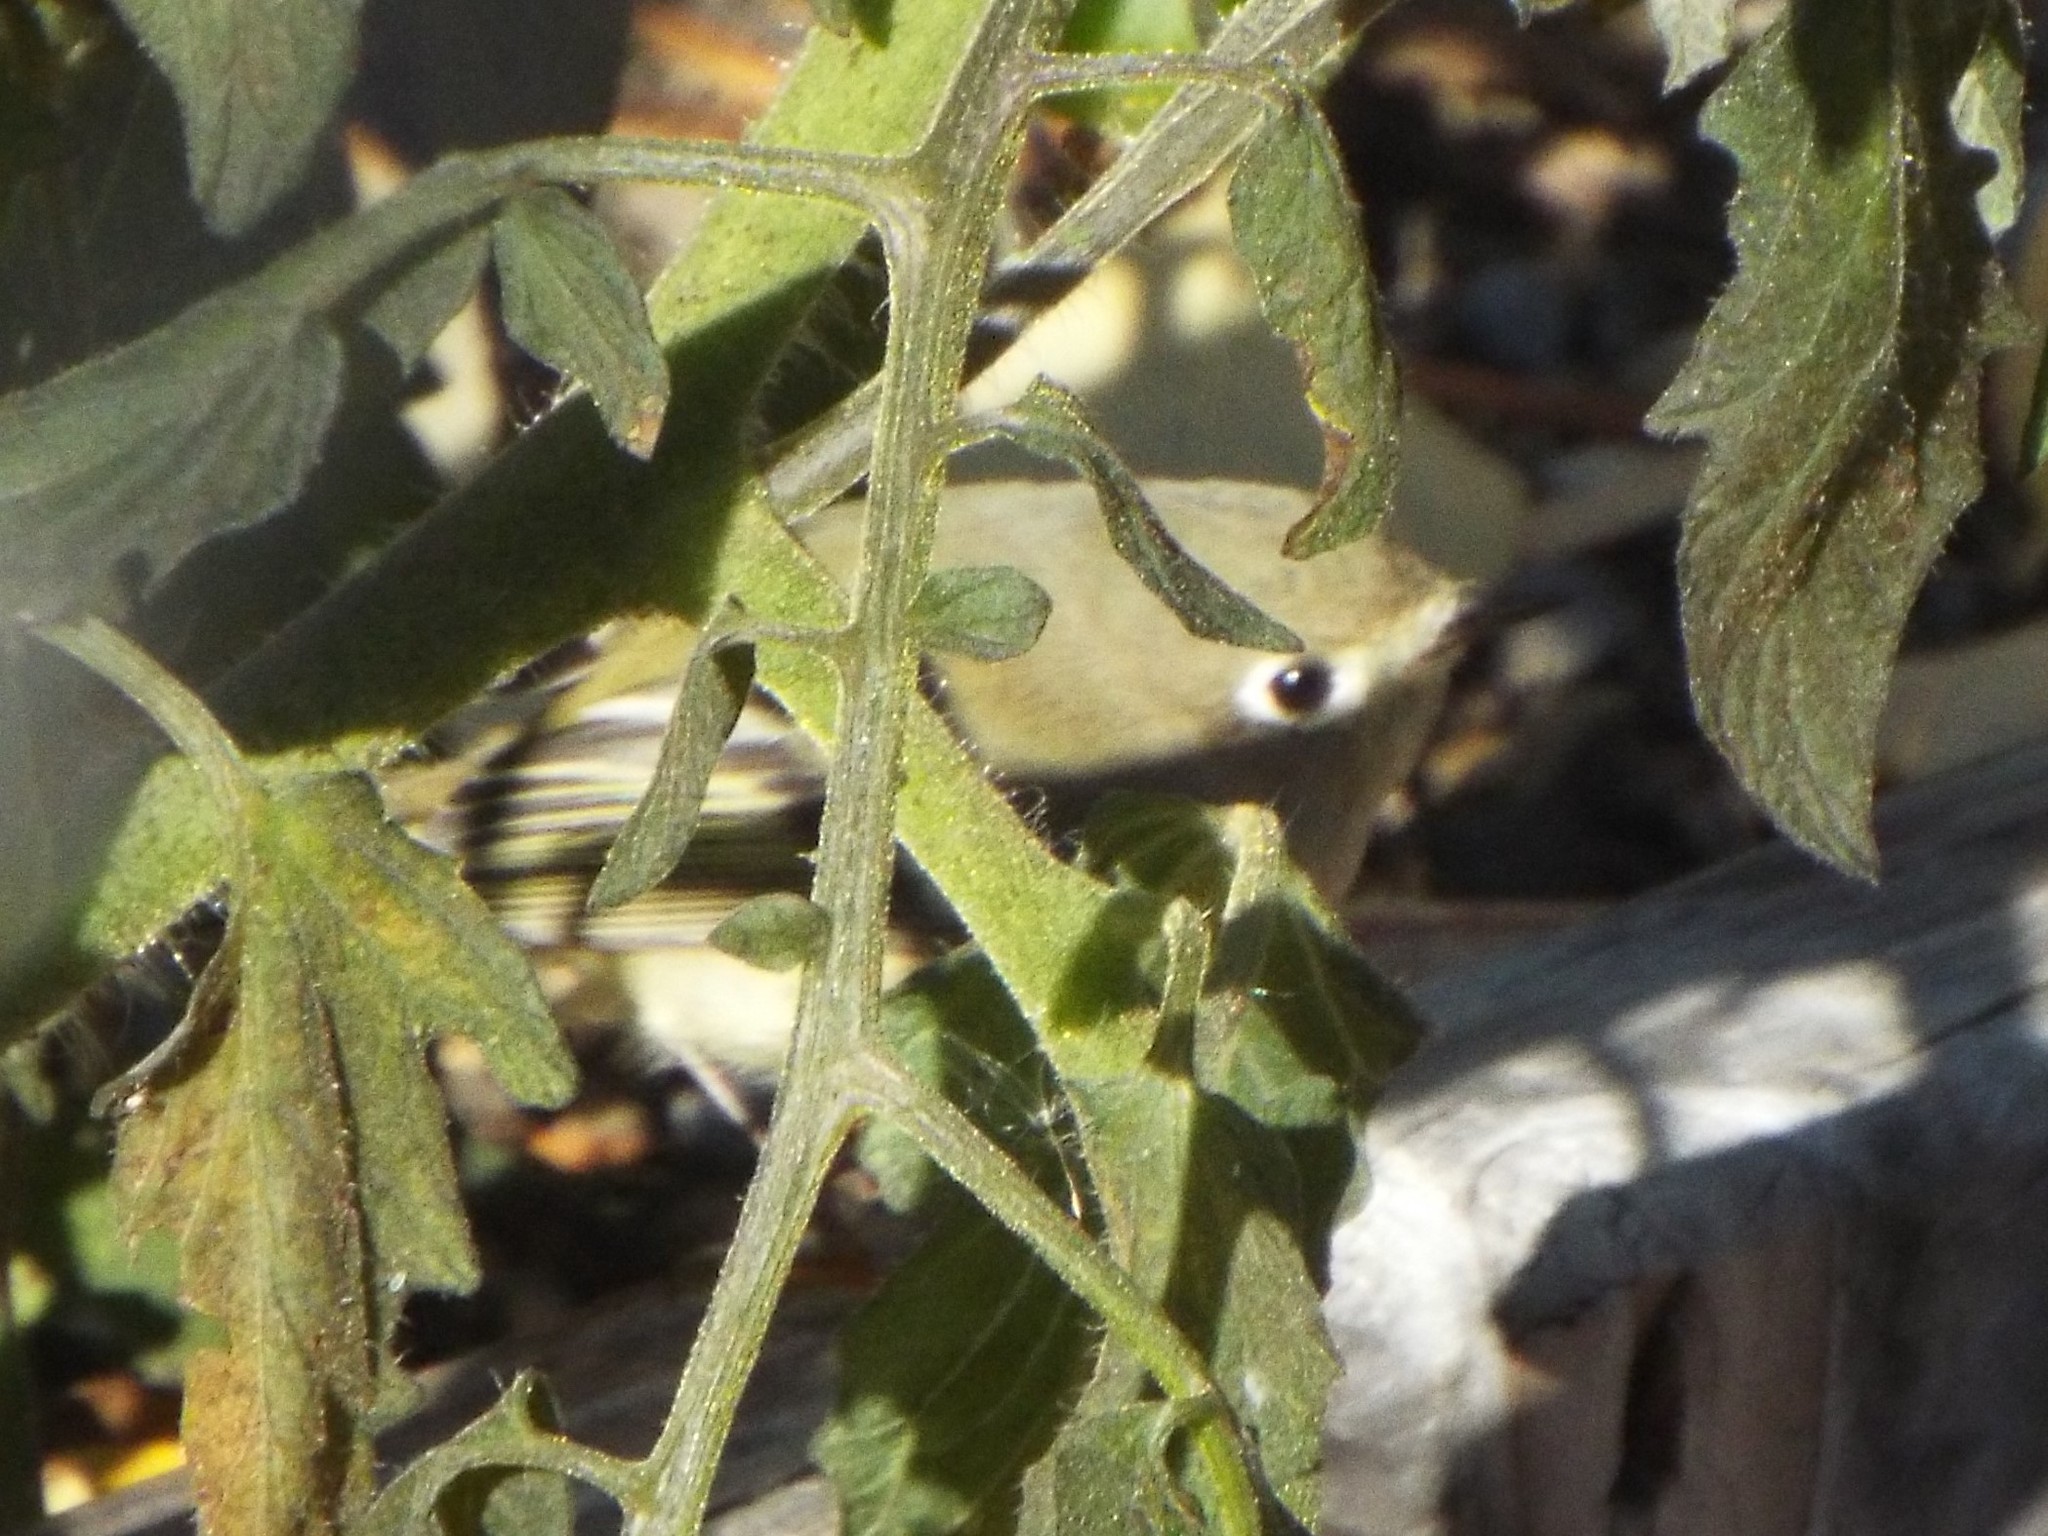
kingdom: Animalia
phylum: Chordata
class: Aves
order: Passeriformes
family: Regulidae
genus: Regulus
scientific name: Regulus calendula
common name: Ruby-crowned kinglet
